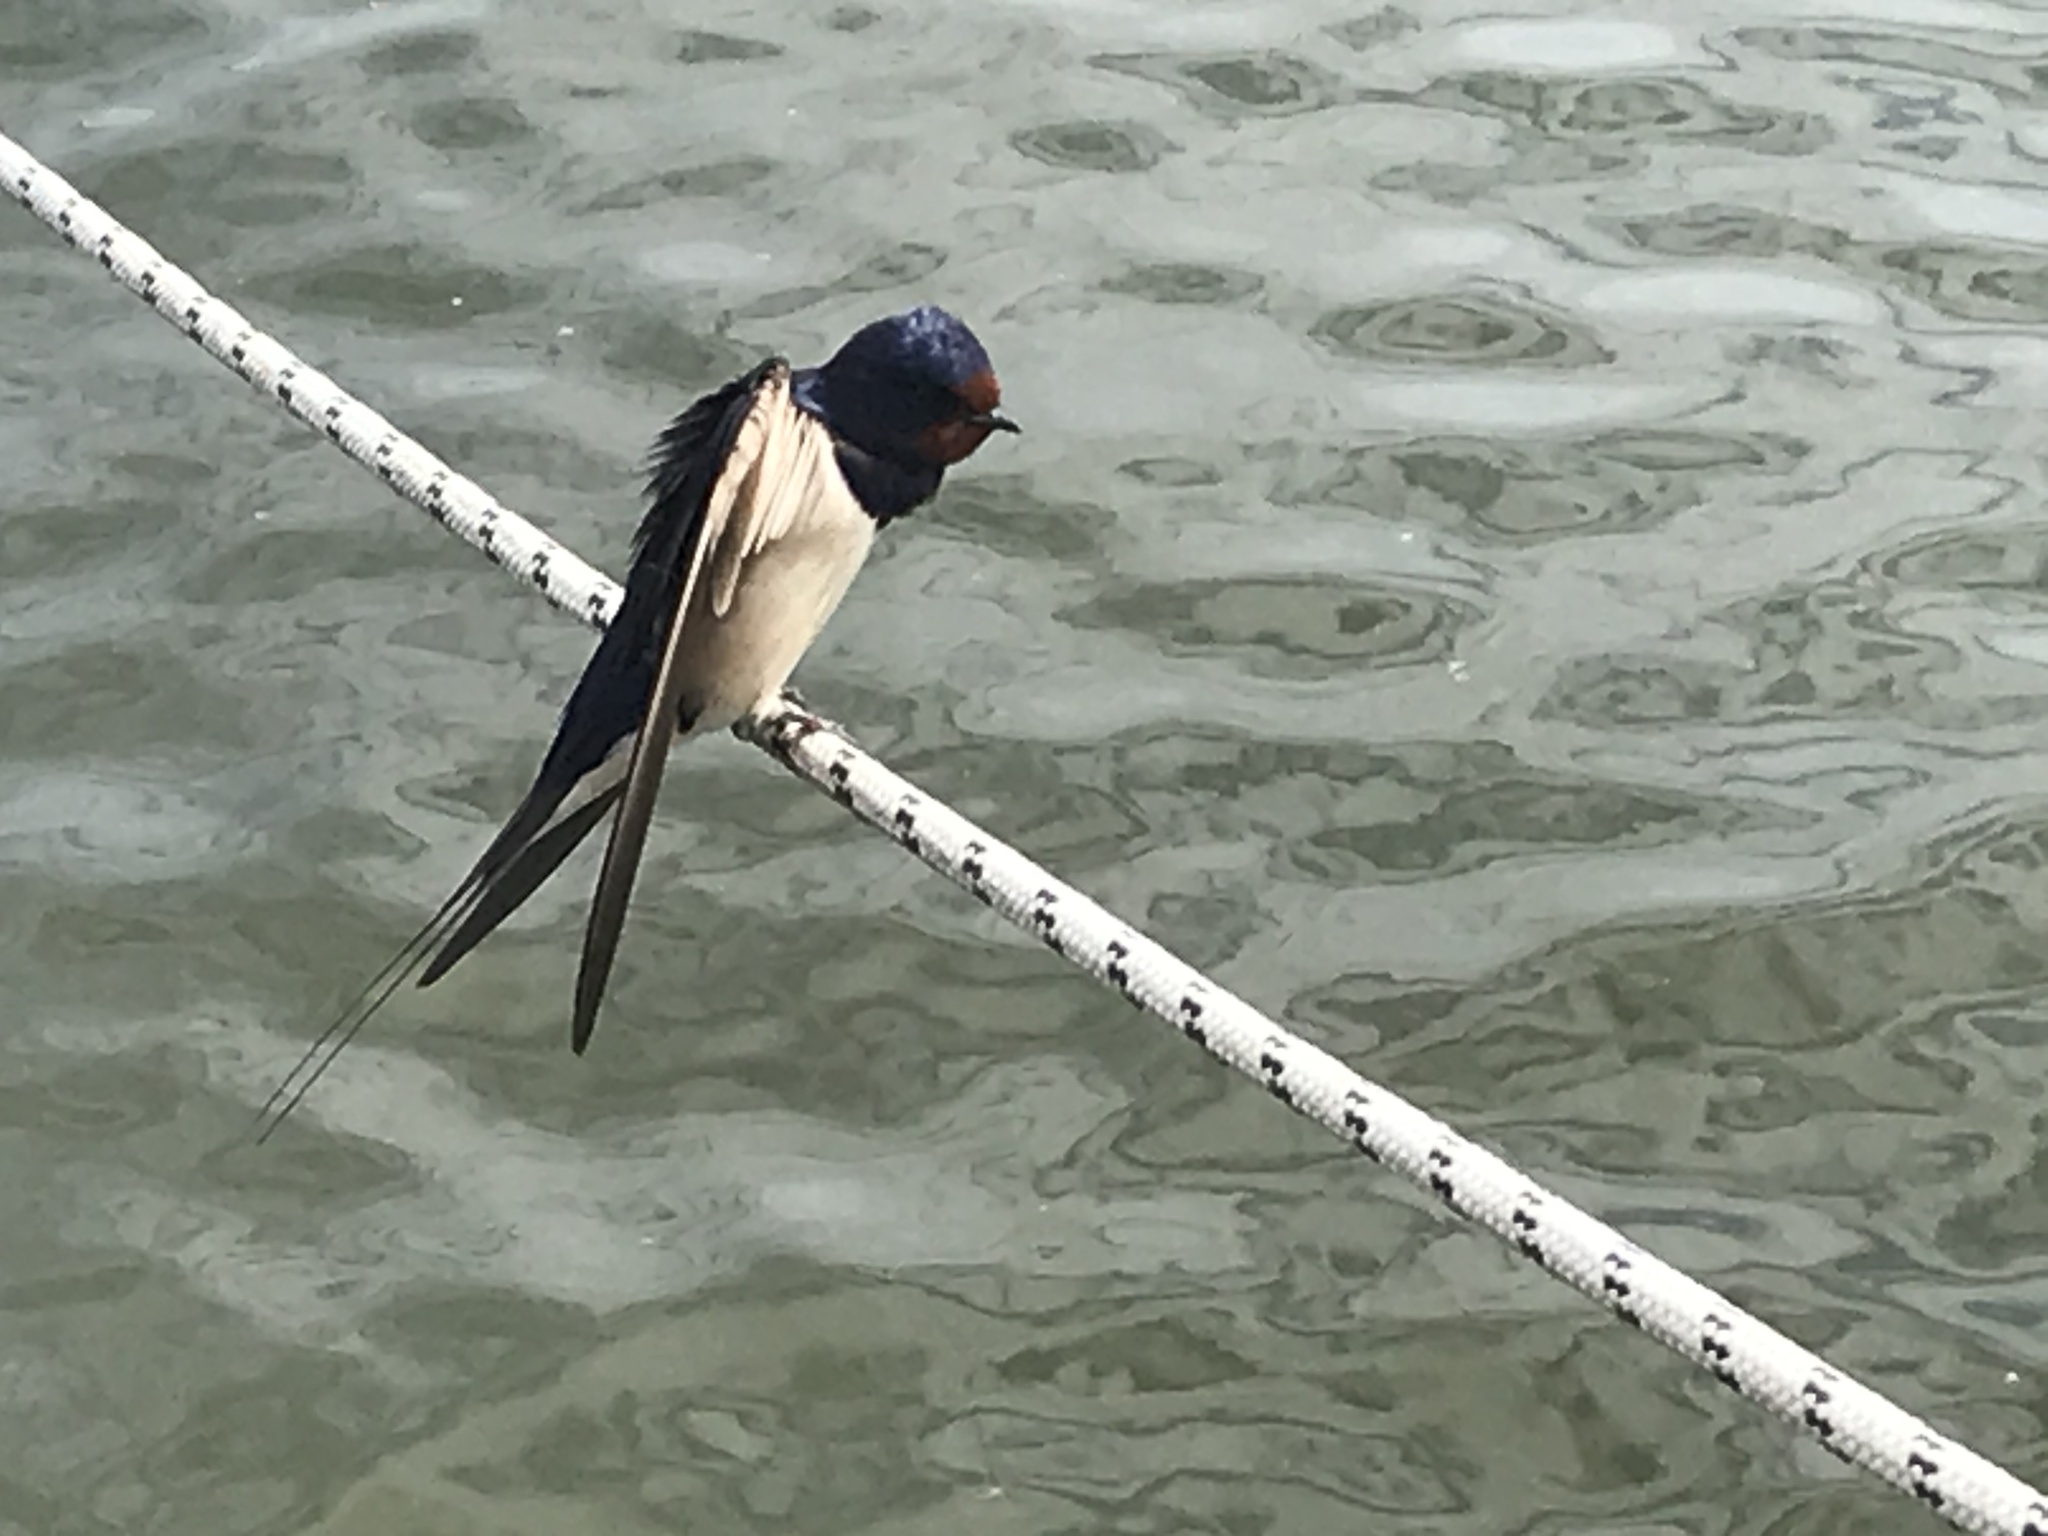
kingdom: Animalia
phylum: Chordata
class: Aves
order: Passeriformes
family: Hirundinidae
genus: Hirundo
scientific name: Hirundo rustica
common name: Barn swallow
